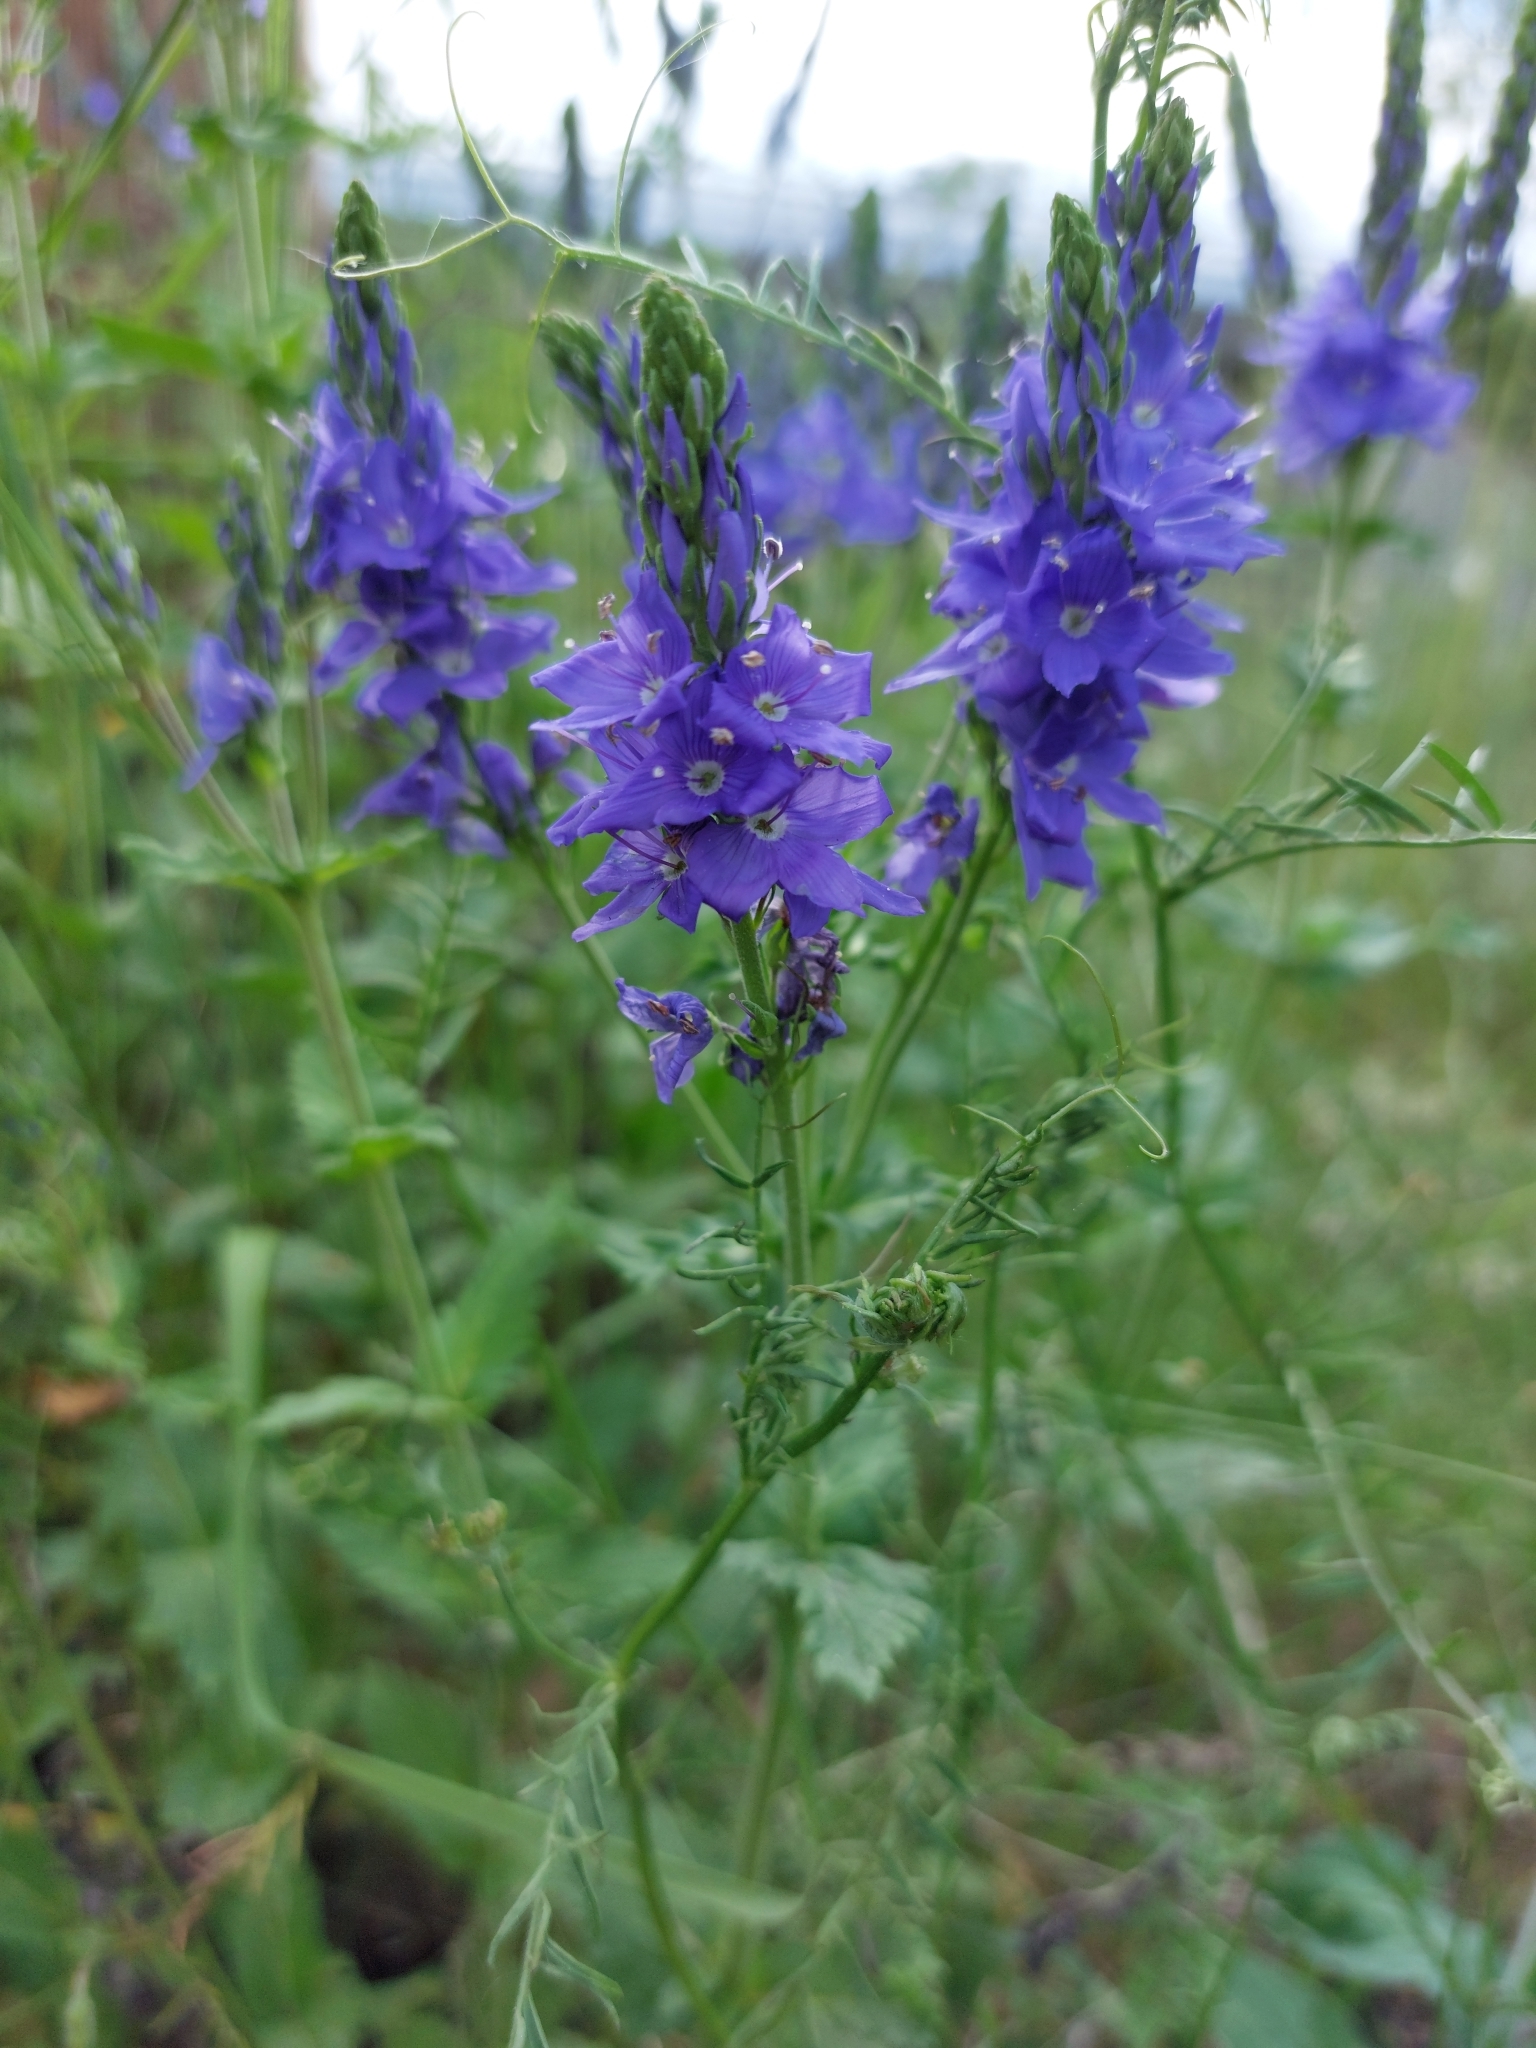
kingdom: Plantae
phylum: Tracheophyta
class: Magnoliopsida
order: Lamiales
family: Plantaginaceae
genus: Veronica
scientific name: Veronica teucrium
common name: Large speedwell
